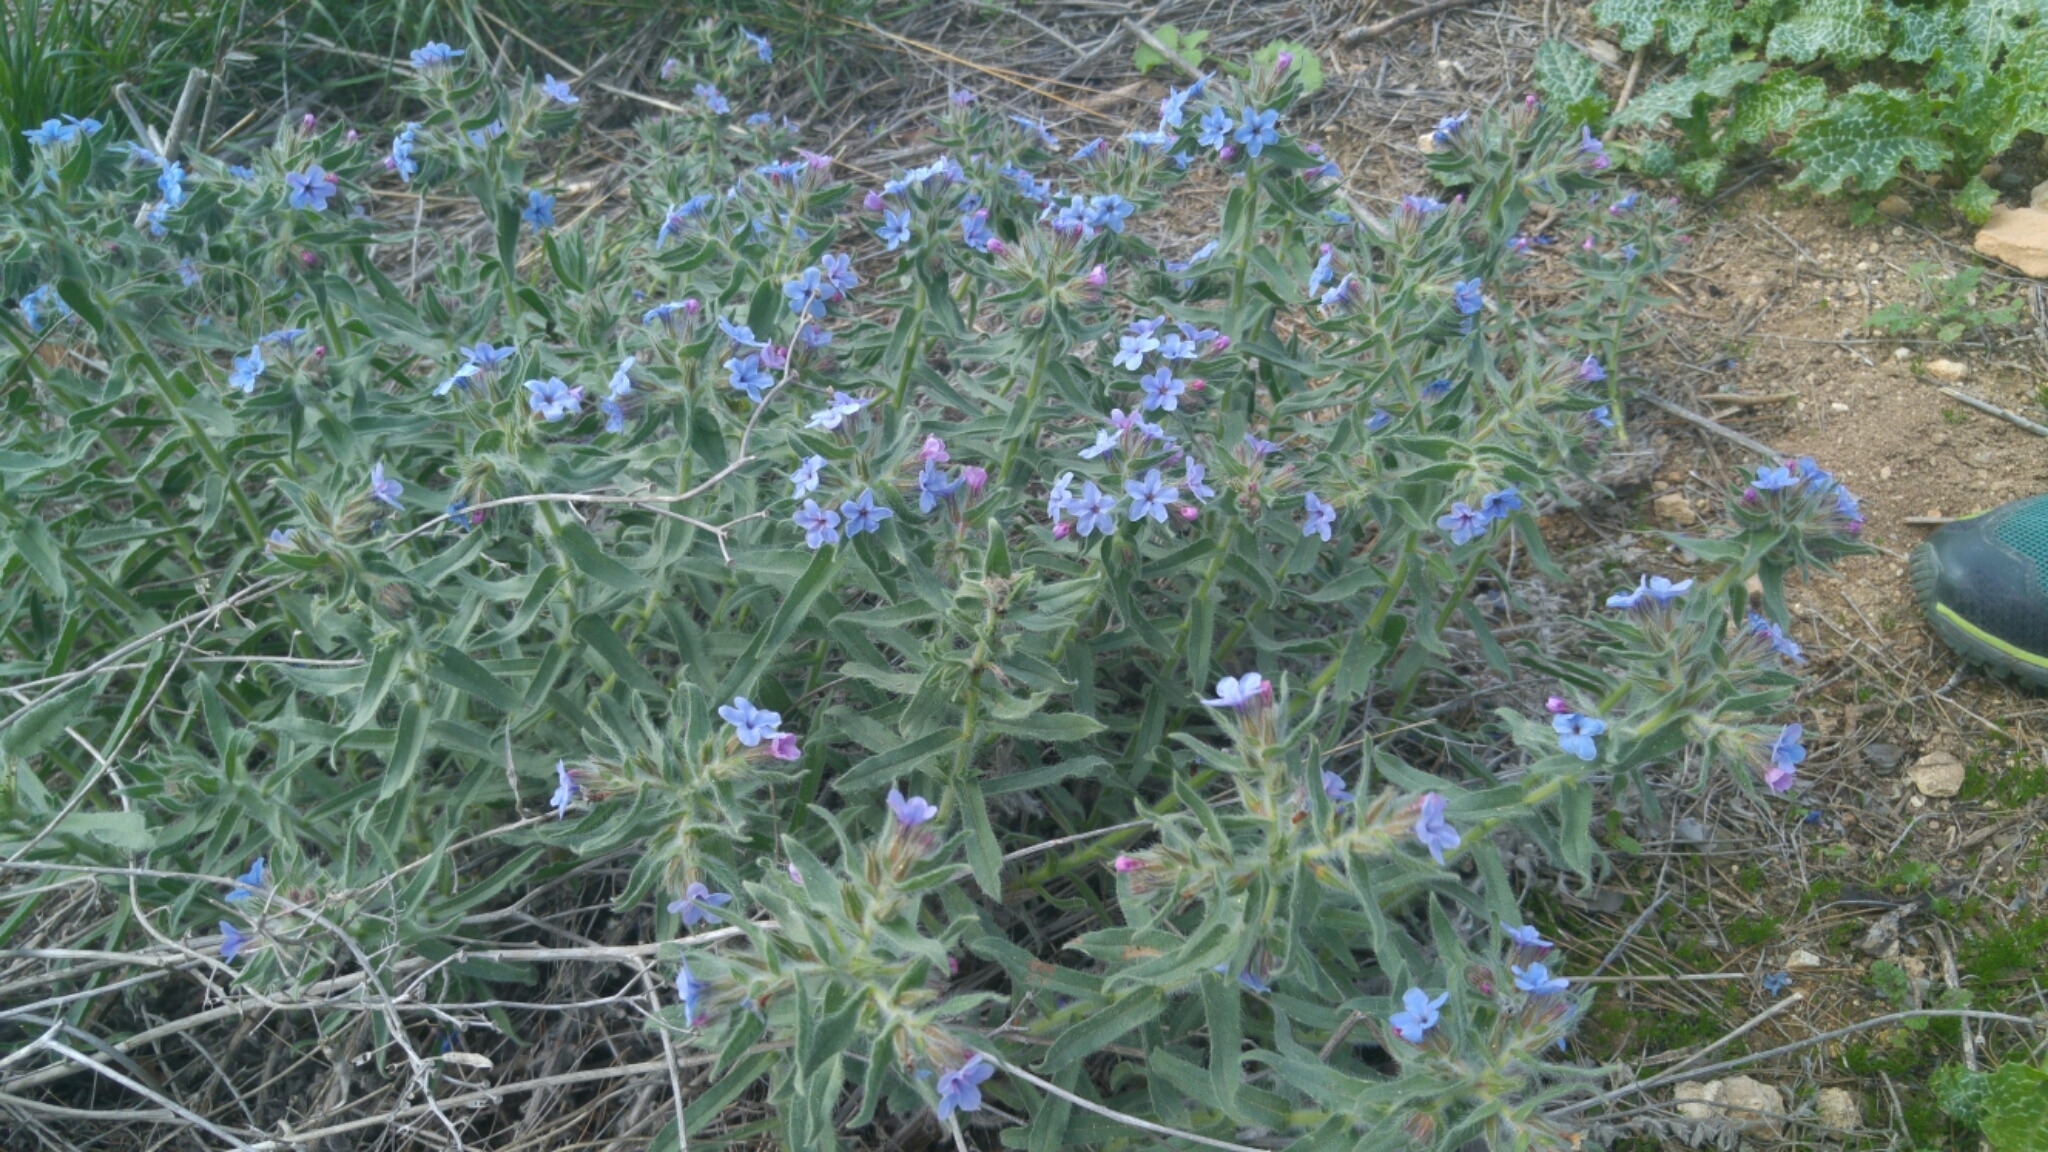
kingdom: Plantae
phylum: Tracheophyta
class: Magnoliopsida
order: Boraginales
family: Boraginaceae
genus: Alkanna
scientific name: Alkanna strigosa
